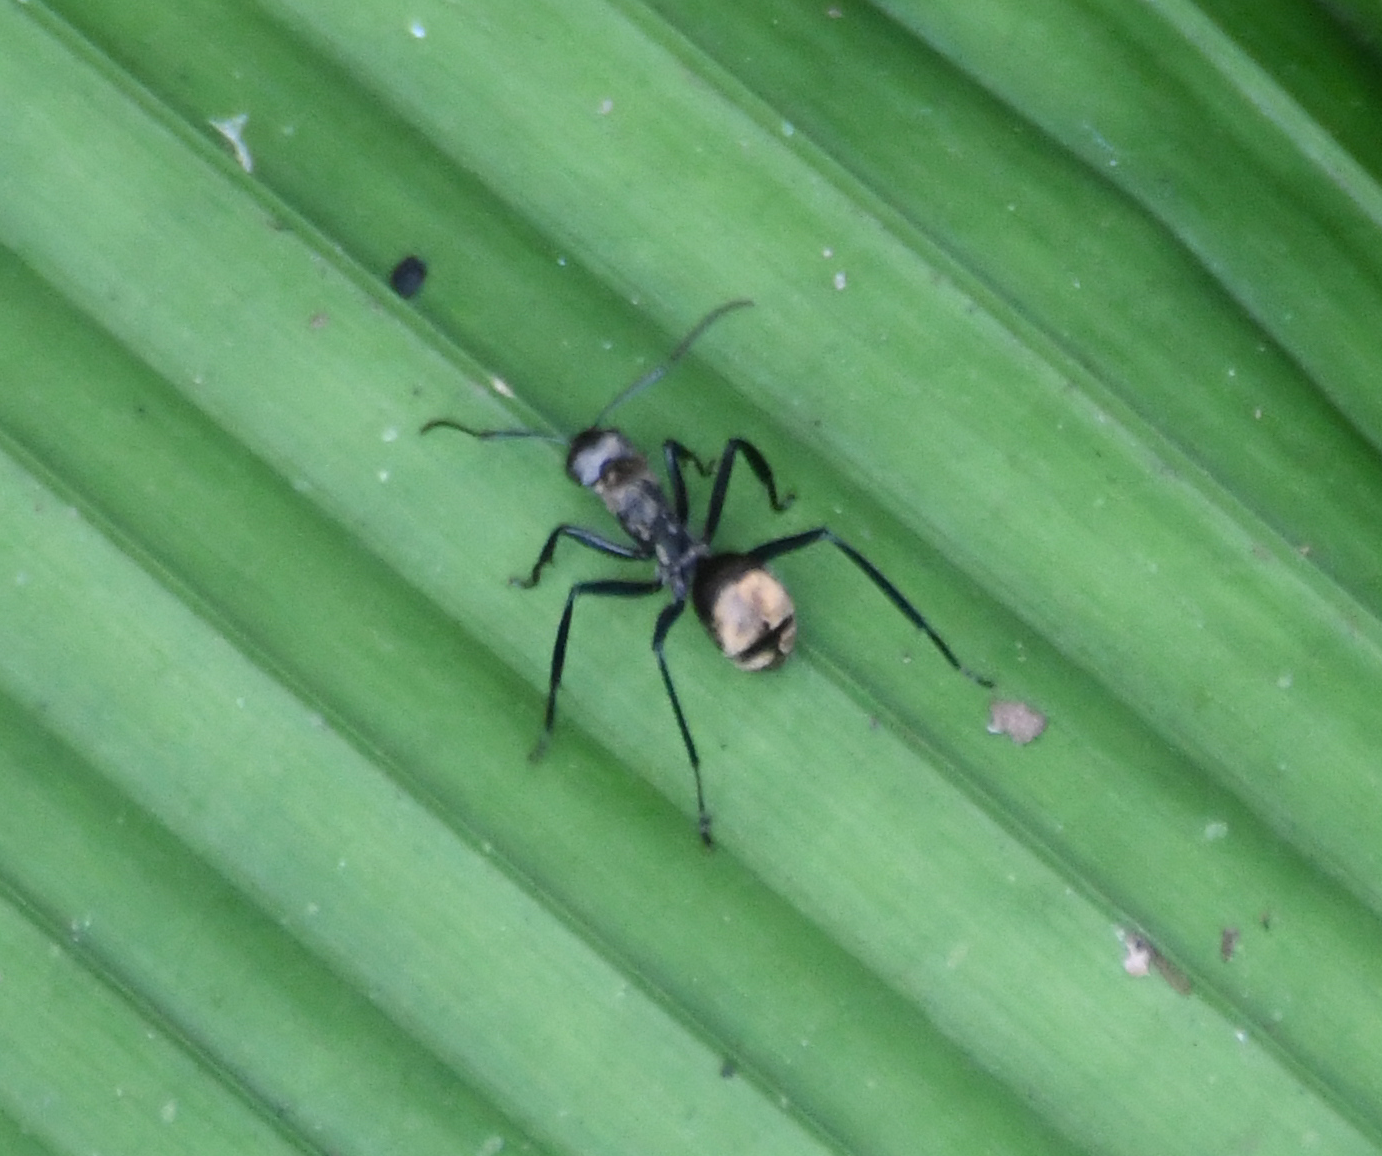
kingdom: Animalia
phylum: Arthropoda
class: Insecta
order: Hymenoptera
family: Formicidae
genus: Camponotus
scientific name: Camponotus sericeiventris
